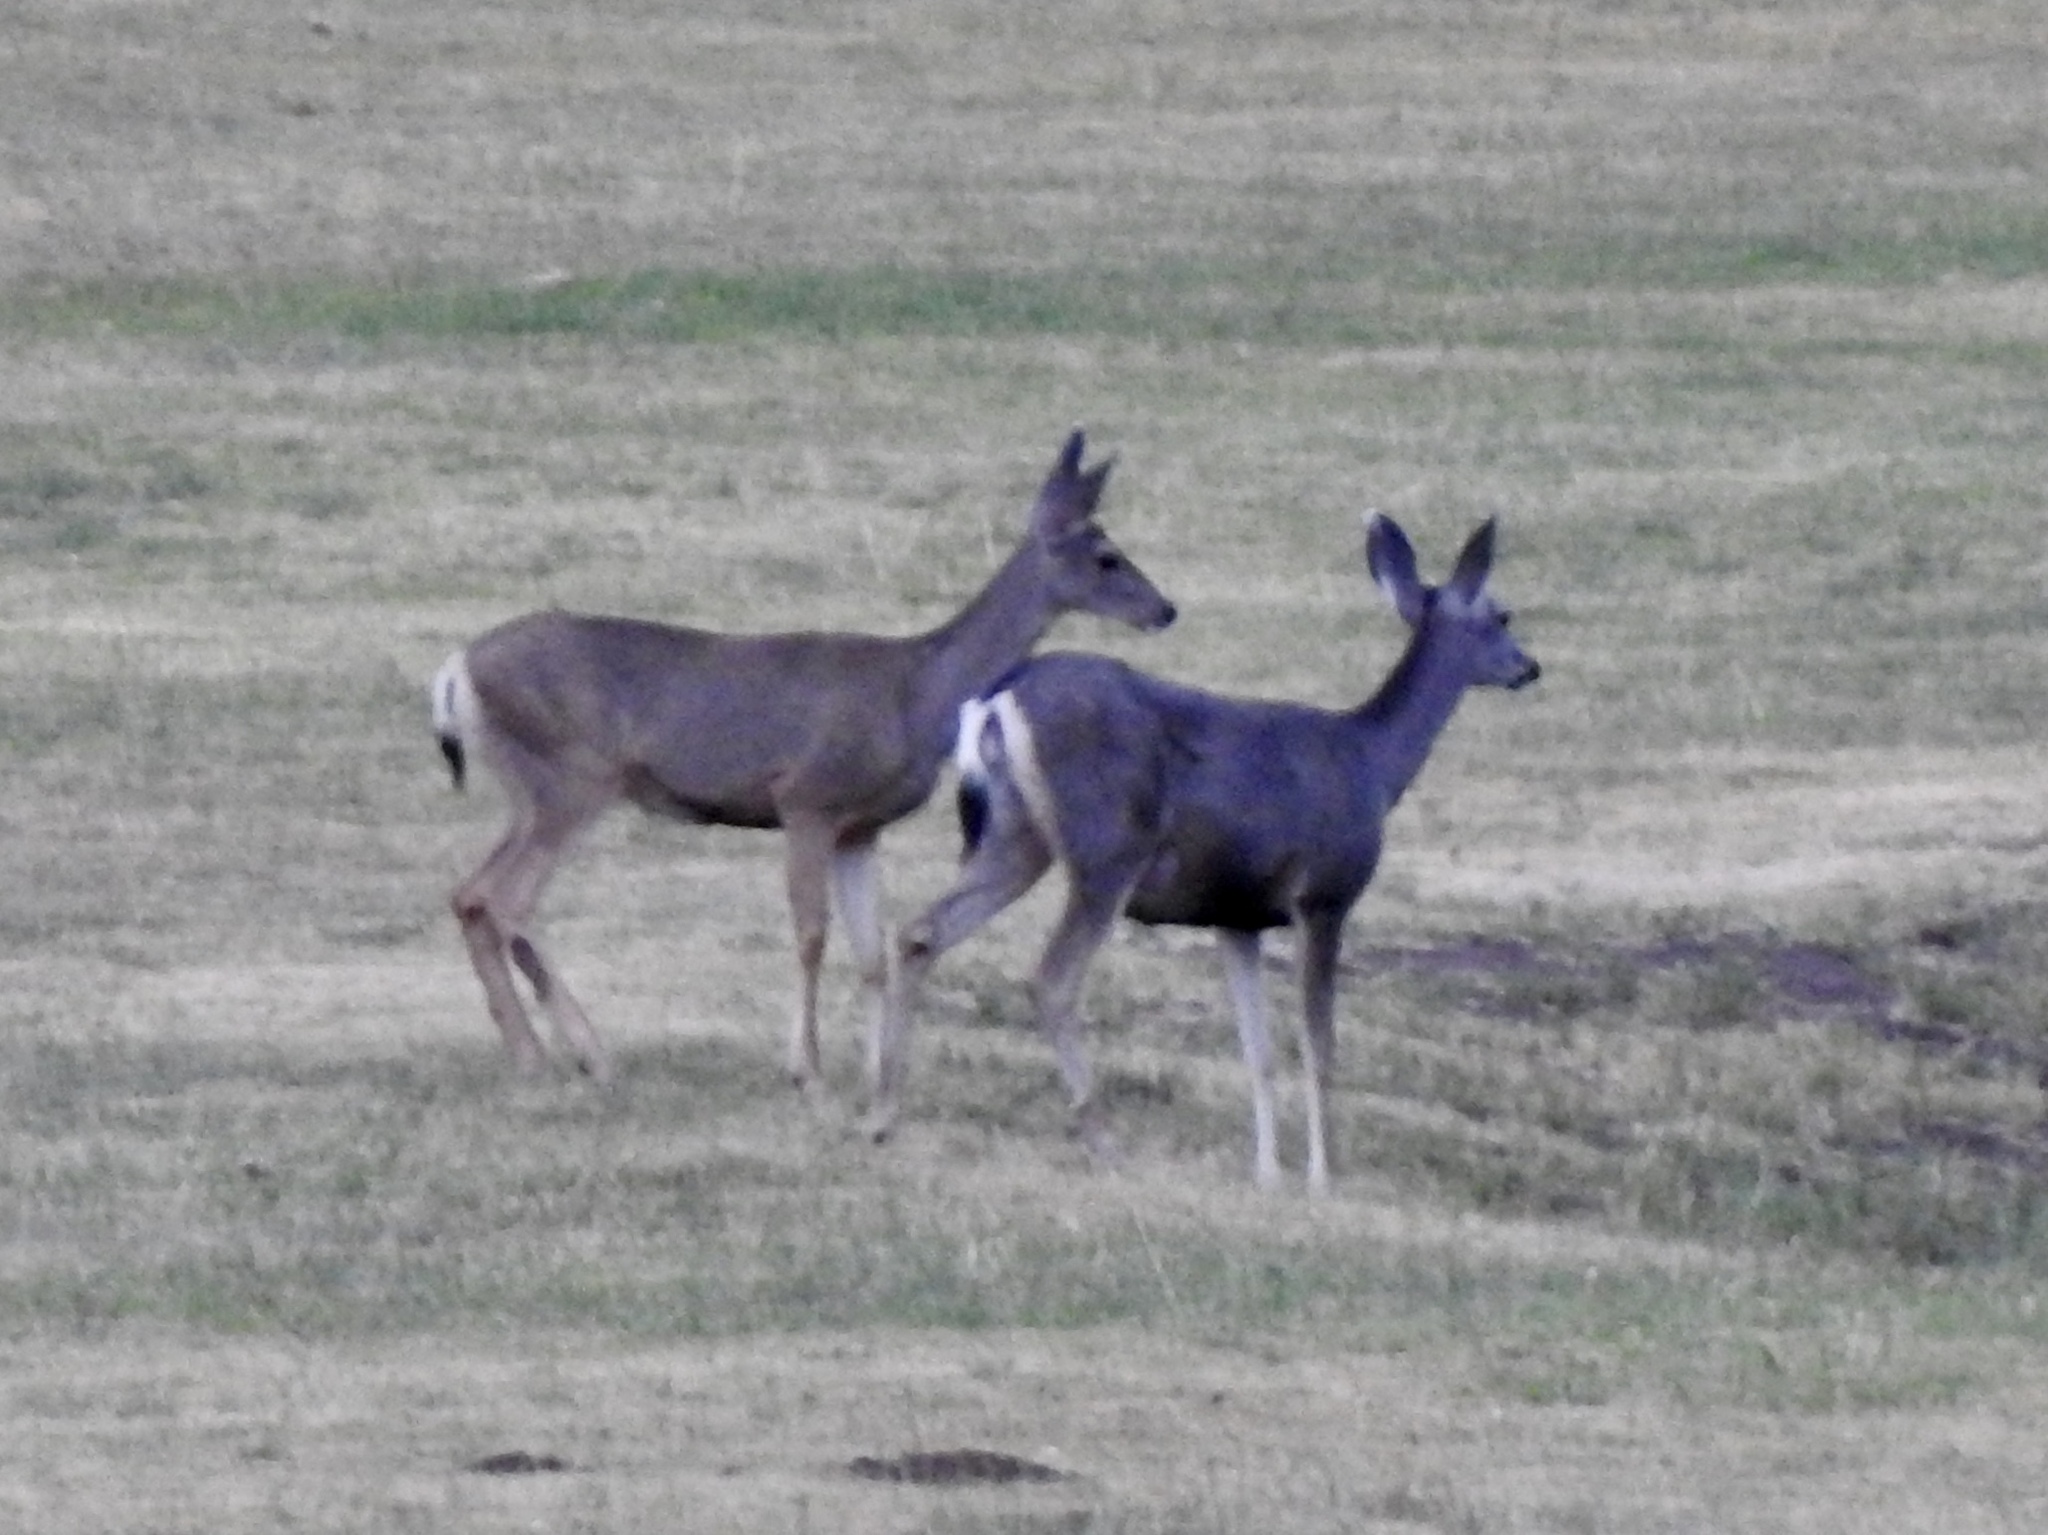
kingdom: Animalia
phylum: Chordata
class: Mammalia
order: Artiodactyla
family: Cervidae
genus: Odocoileus
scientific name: Odocoileus hemionus
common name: Mule deer
